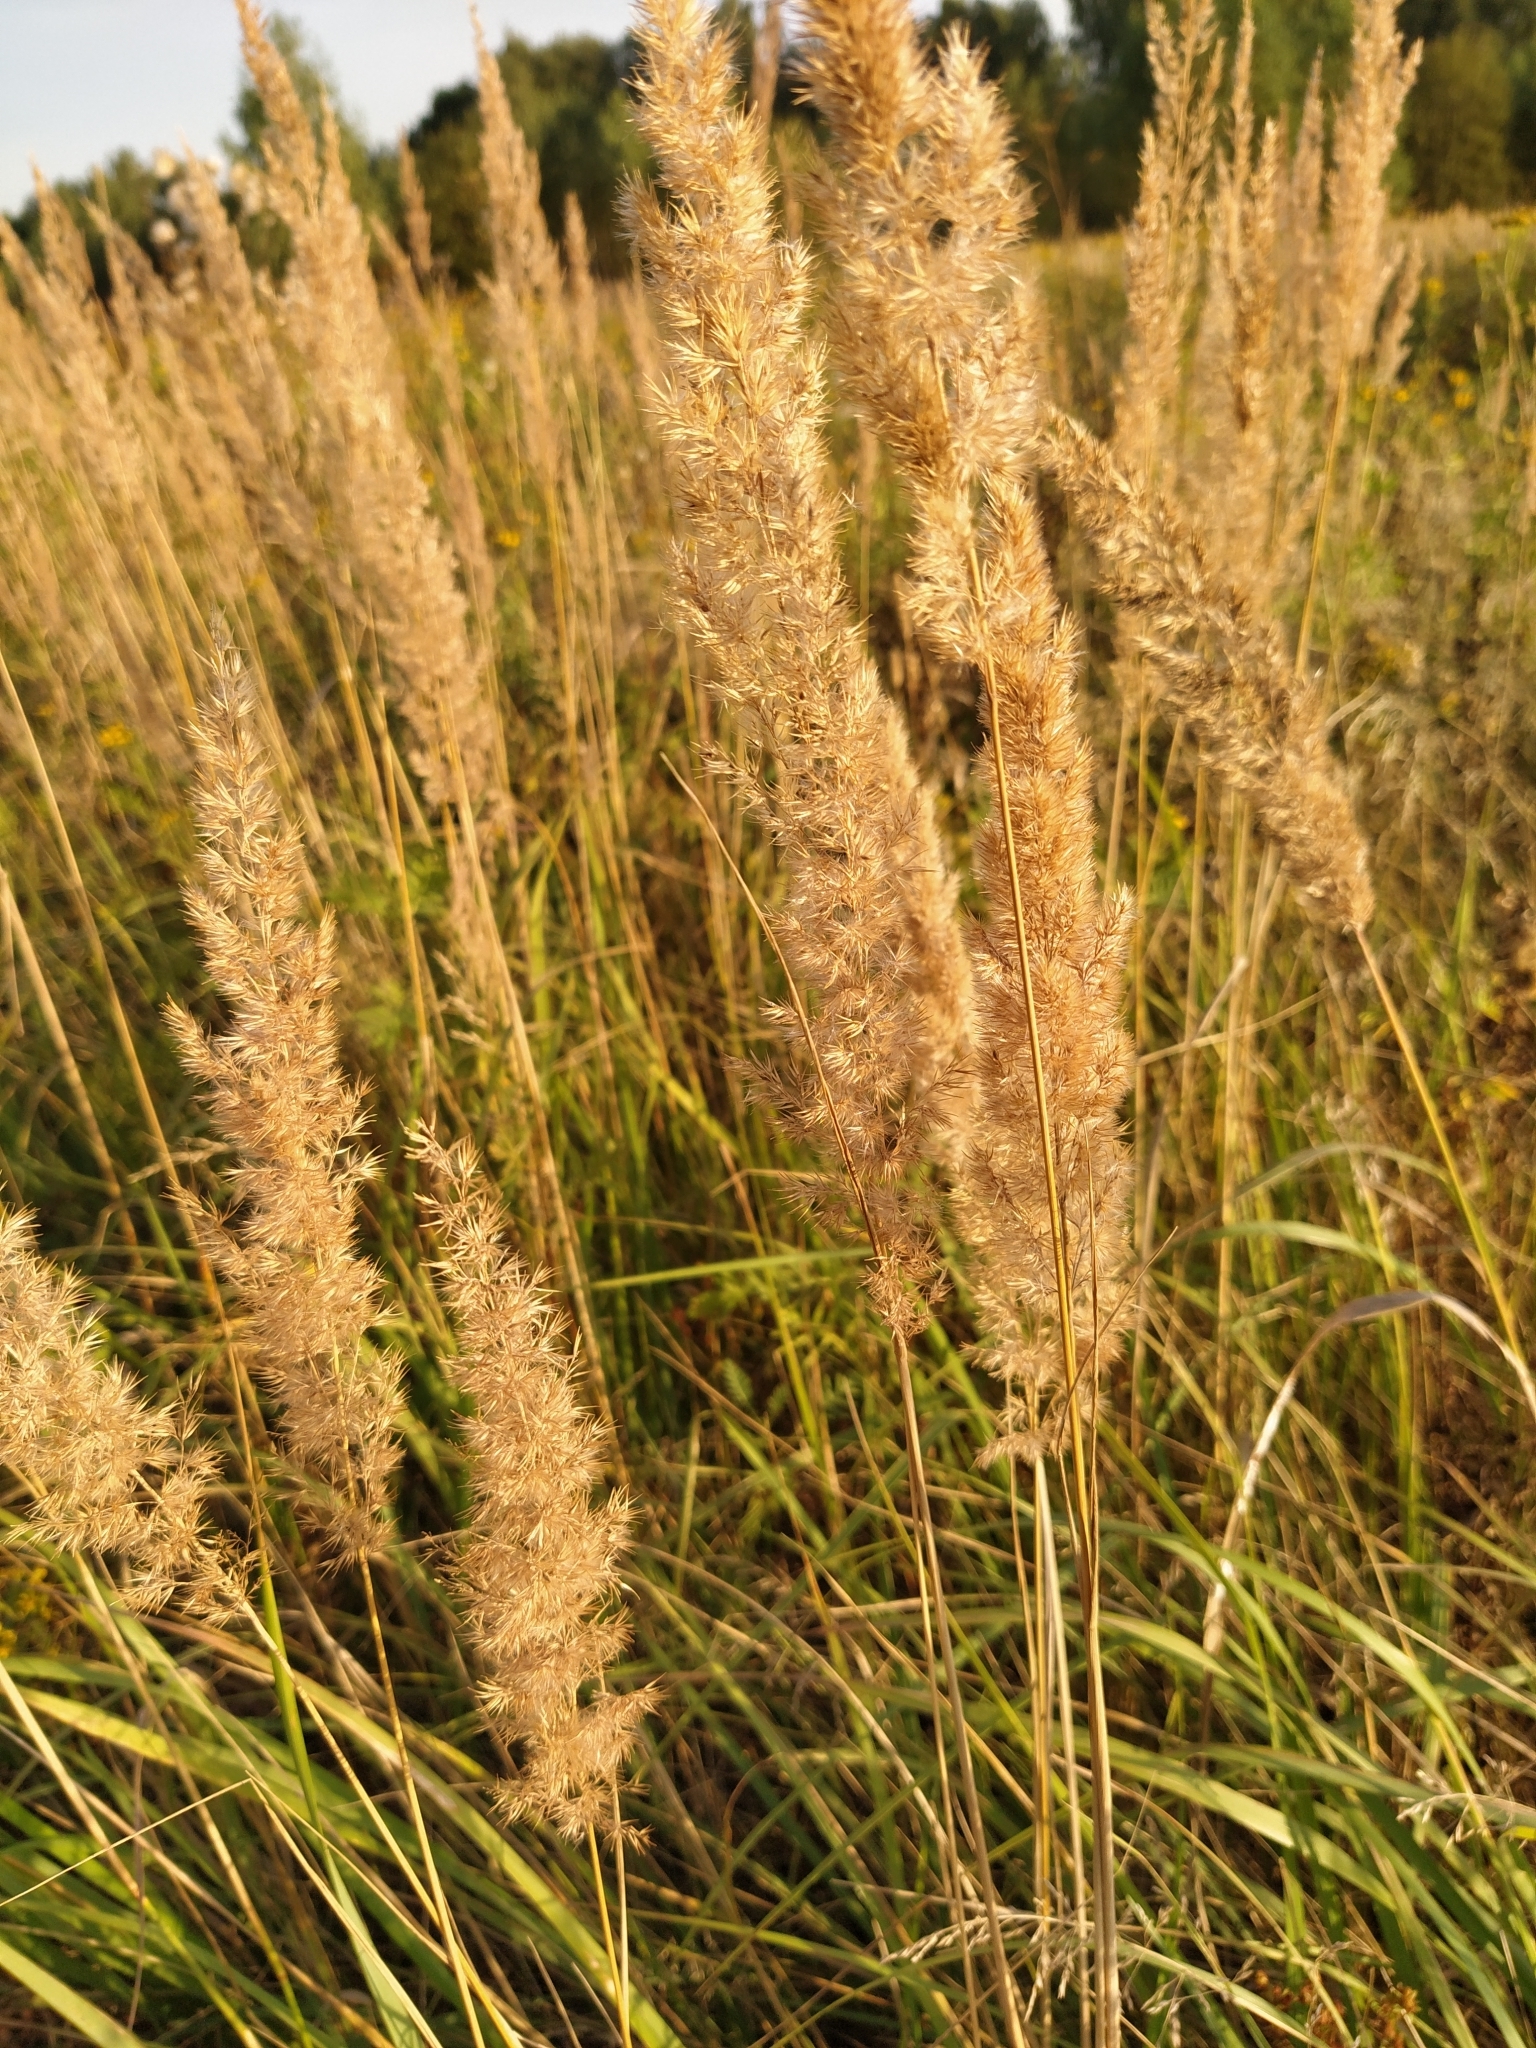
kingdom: Plantae
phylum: Tracheophyta
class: Liliopsida
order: Poales
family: Poaceae
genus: Calamagrostis
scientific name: Calamagrostis epigejos
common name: Wood small-reed
